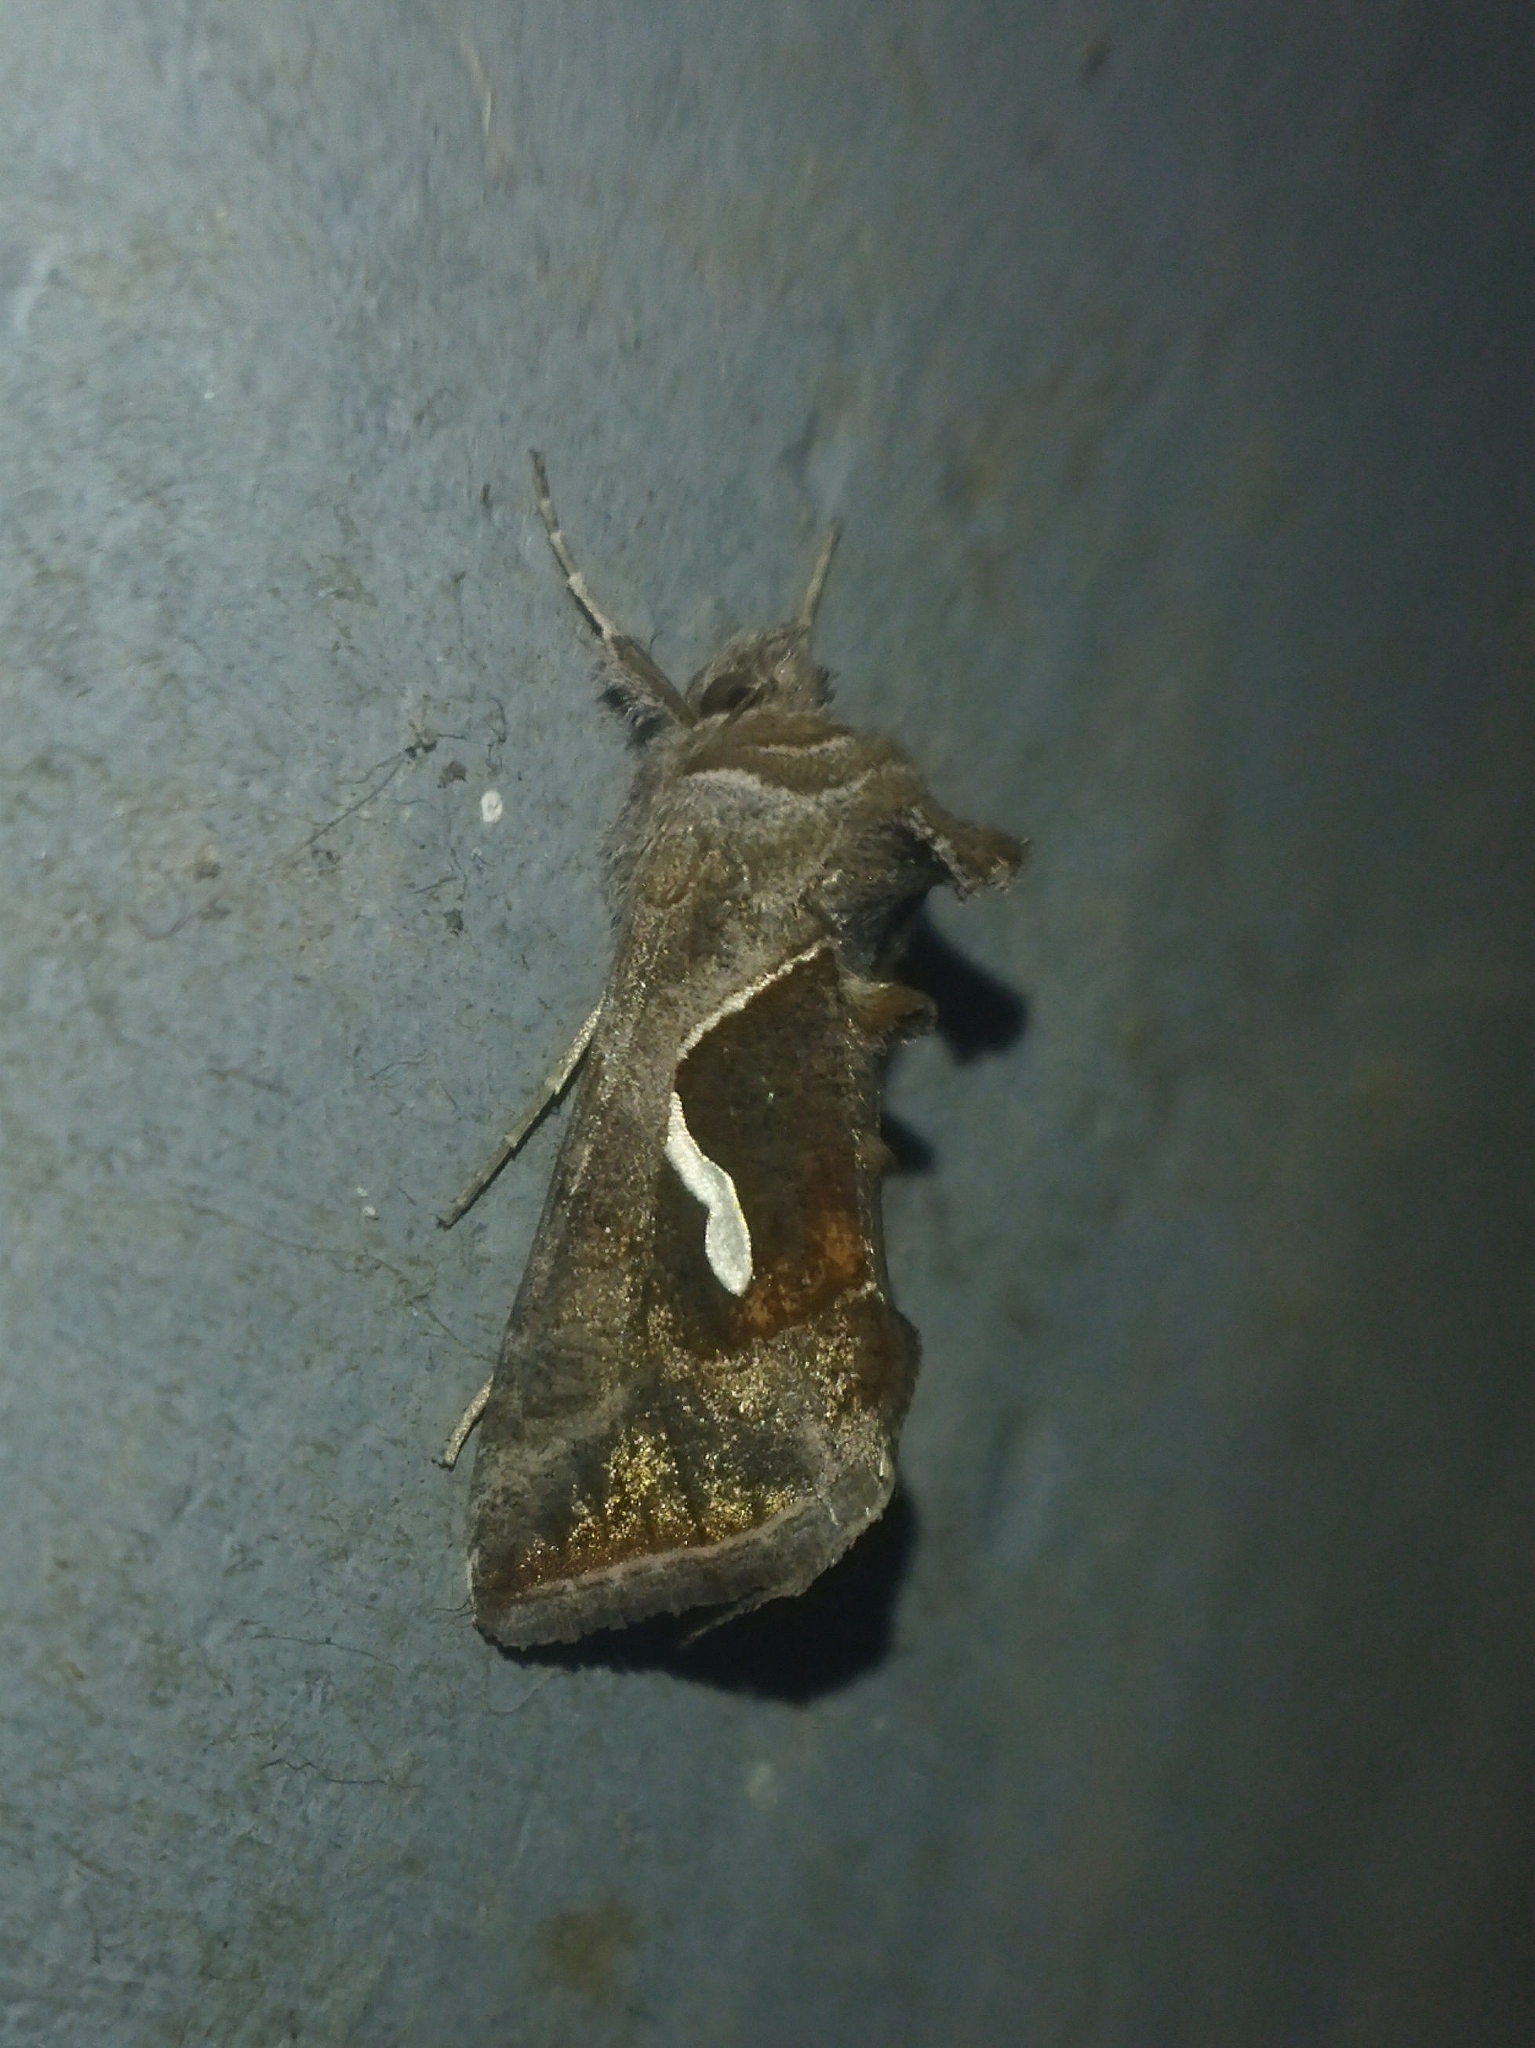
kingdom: Animalia
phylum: Arthropoda
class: Insecta
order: Lepidoptera
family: Noctuidae
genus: Macdunnoughia
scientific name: Macdunnoughia confusa
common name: Dewick's plusia
